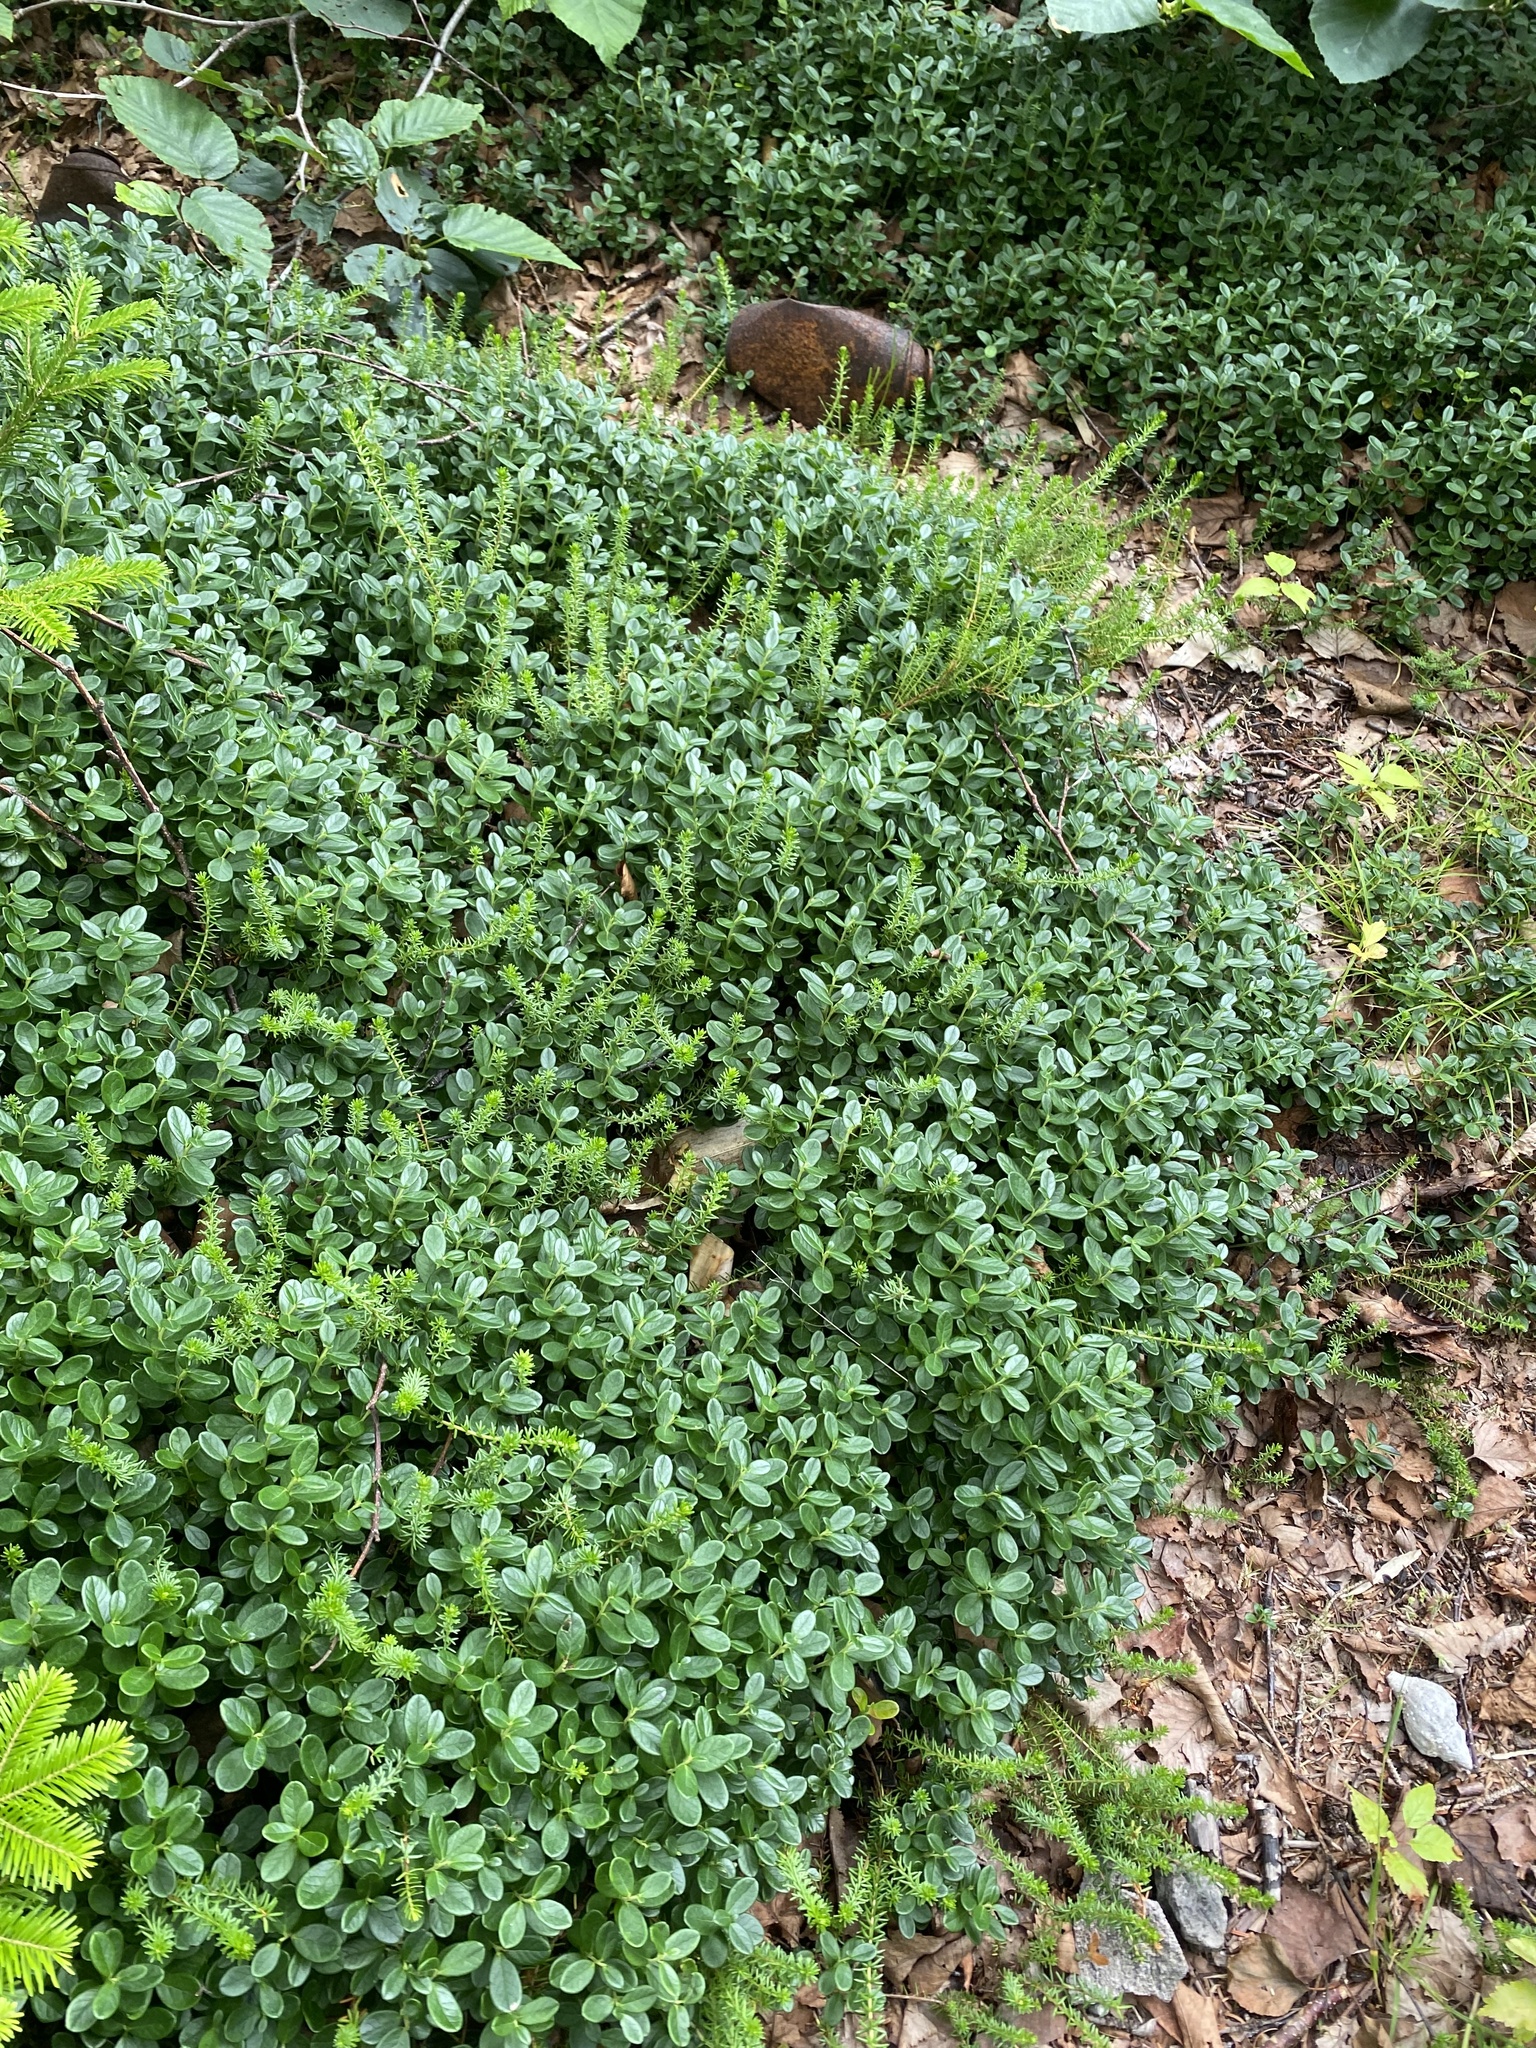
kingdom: Plantae
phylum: Tracheophyta
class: Magnoliopsida
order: Ericales
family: Ericaceae
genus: Vaccinium
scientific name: Vaccinium vitis-idaea
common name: Cowberry
